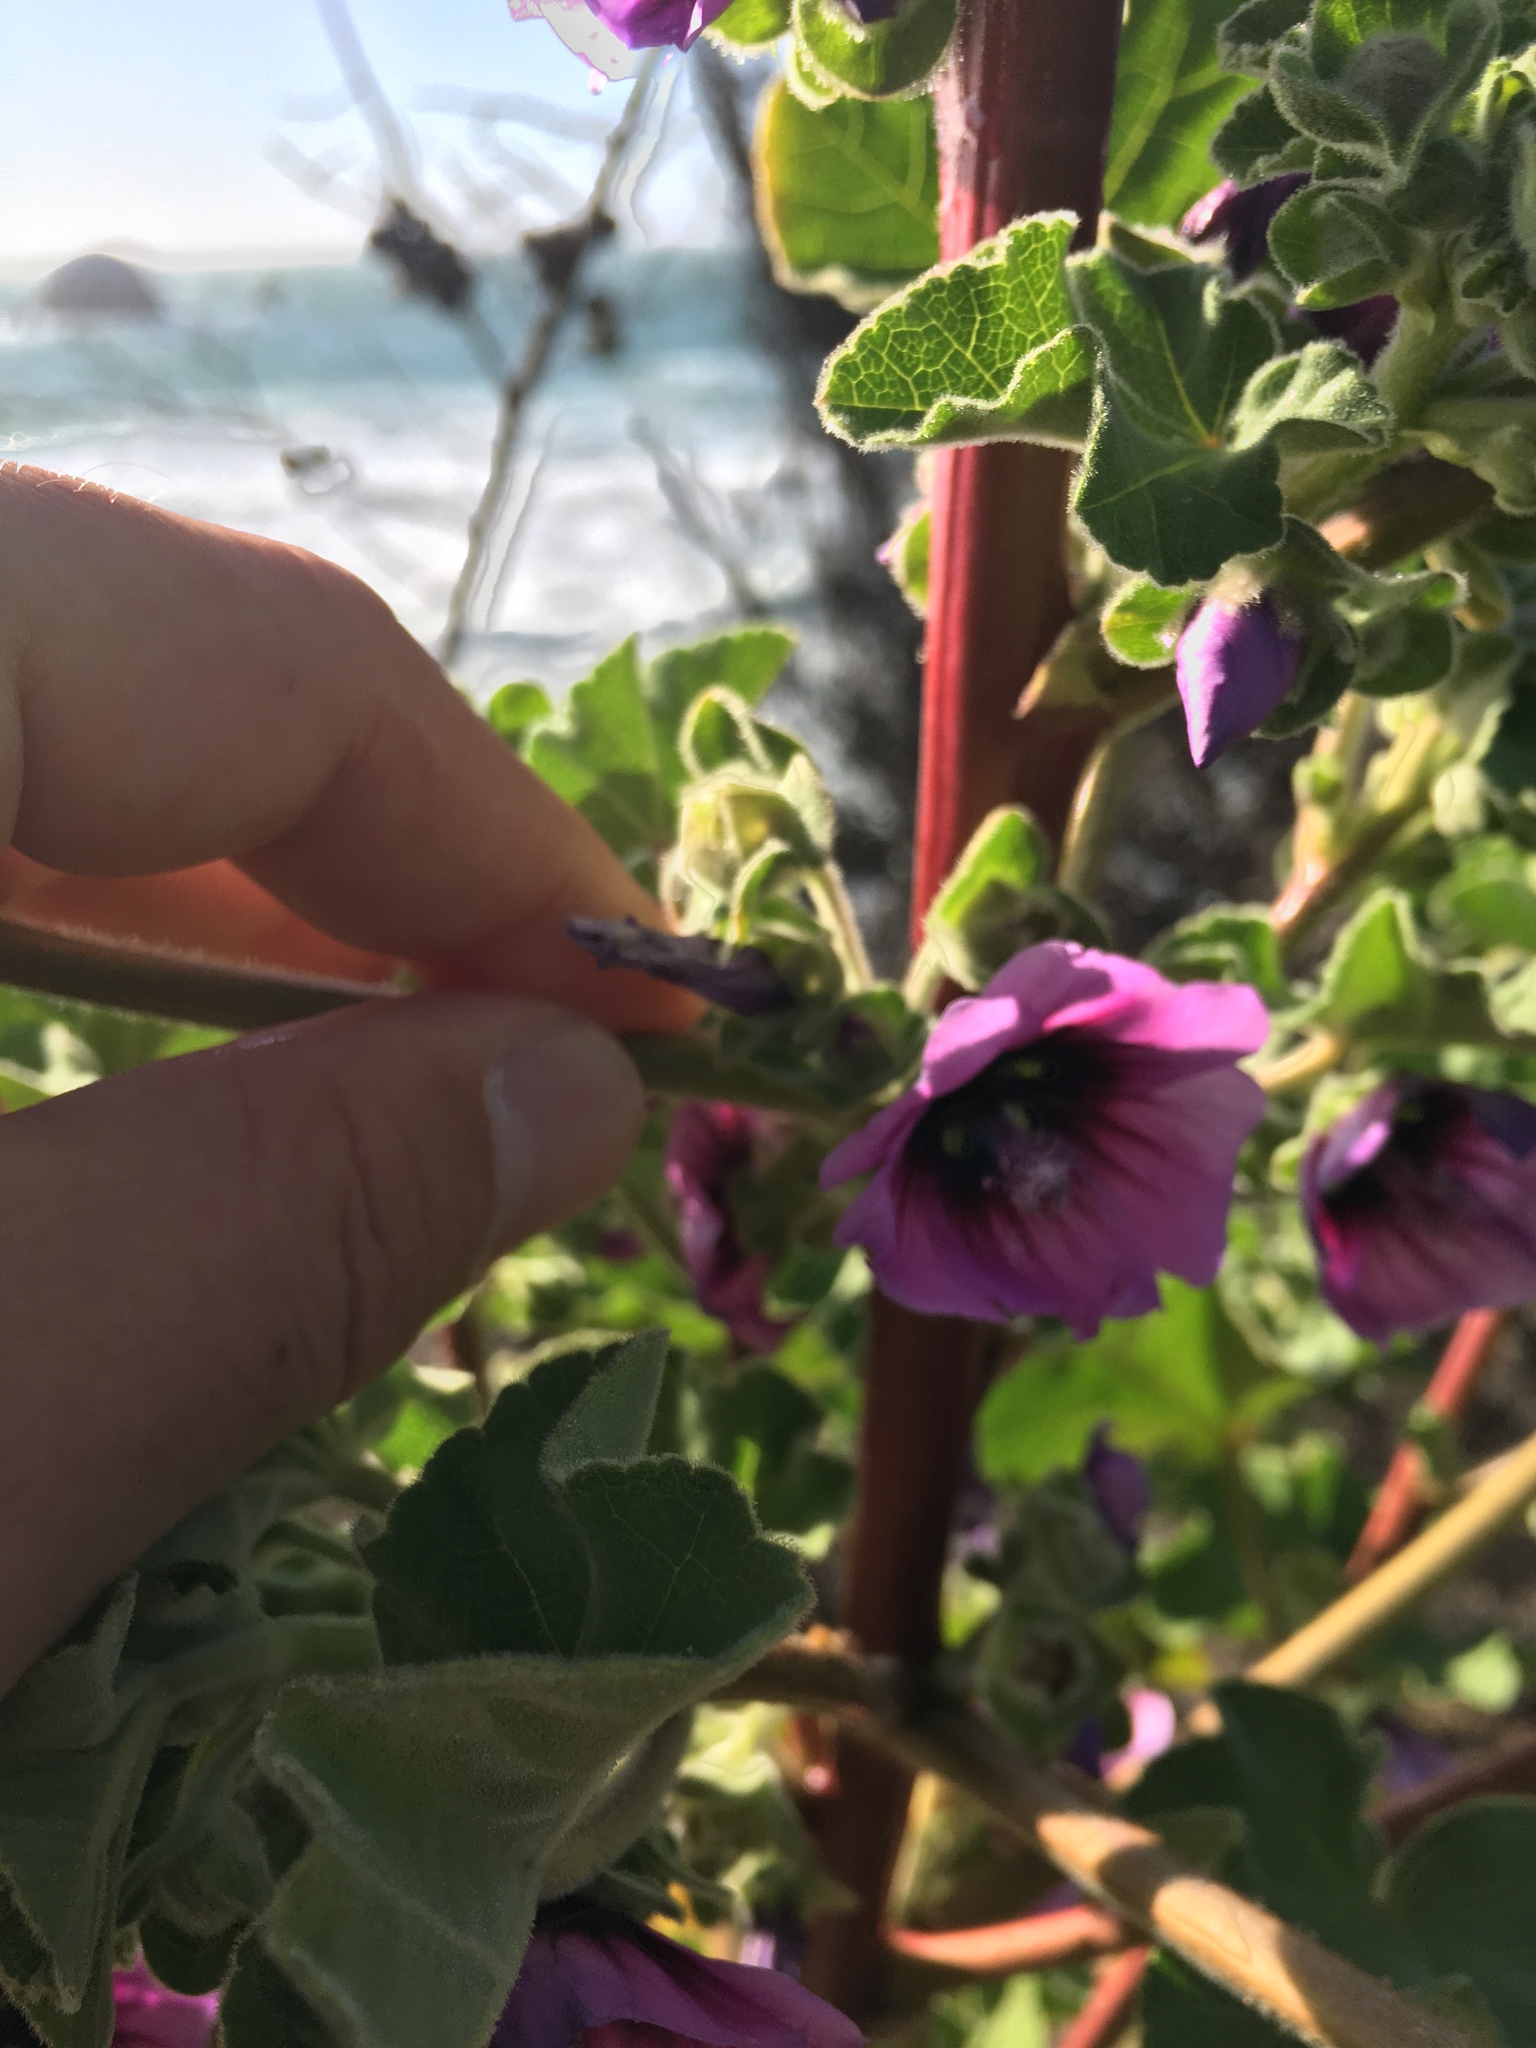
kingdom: Plantae
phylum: Tracheophyta
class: Magnoliopsida
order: Malvales
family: Malvaceae
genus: Malva
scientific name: Malva arborea
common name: Tree mallow
